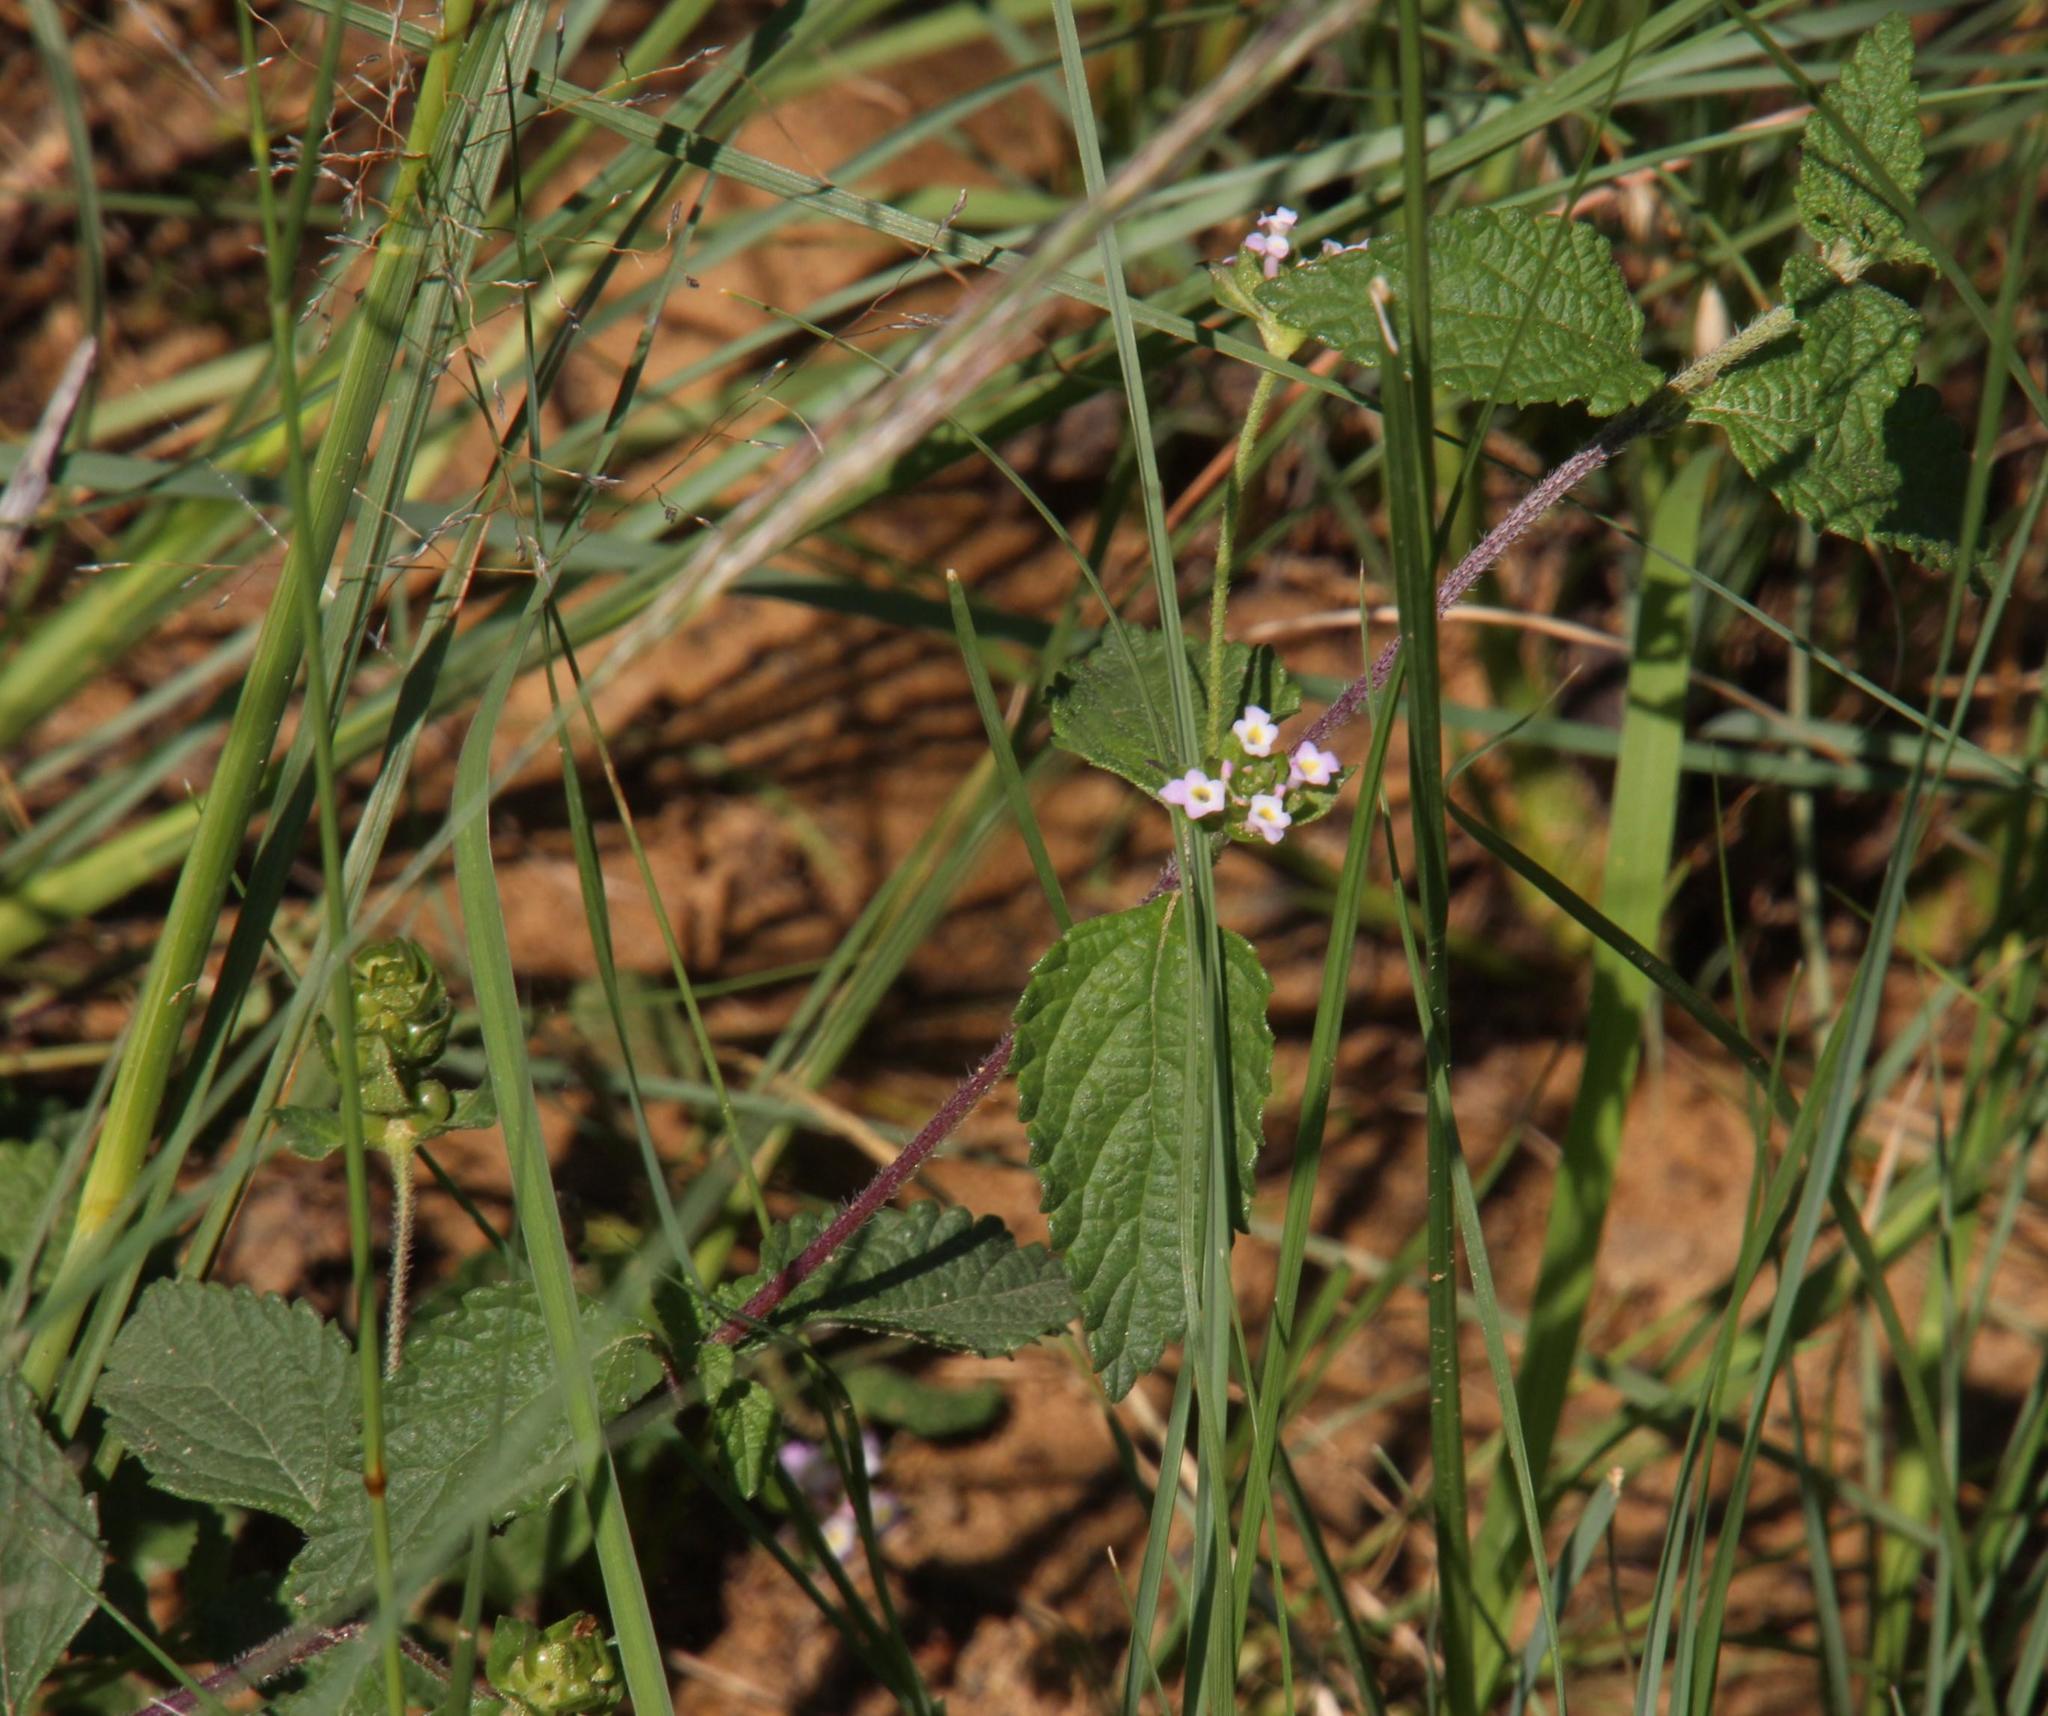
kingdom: Plantae
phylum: Tracheophyta
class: Magnoliopsida
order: Lamiales
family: Verbenaceae
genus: Lantana
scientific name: Lantana rugosa
